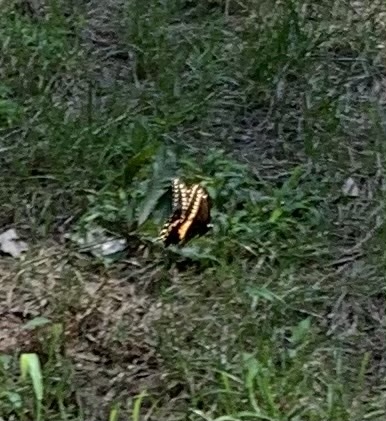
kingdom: Animalia
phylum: Arthropoda
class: Insecta
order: Lepidoptera
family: Papilionidae
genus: Papilio
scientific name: Papilio polyxenes
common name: Black swallowtail
